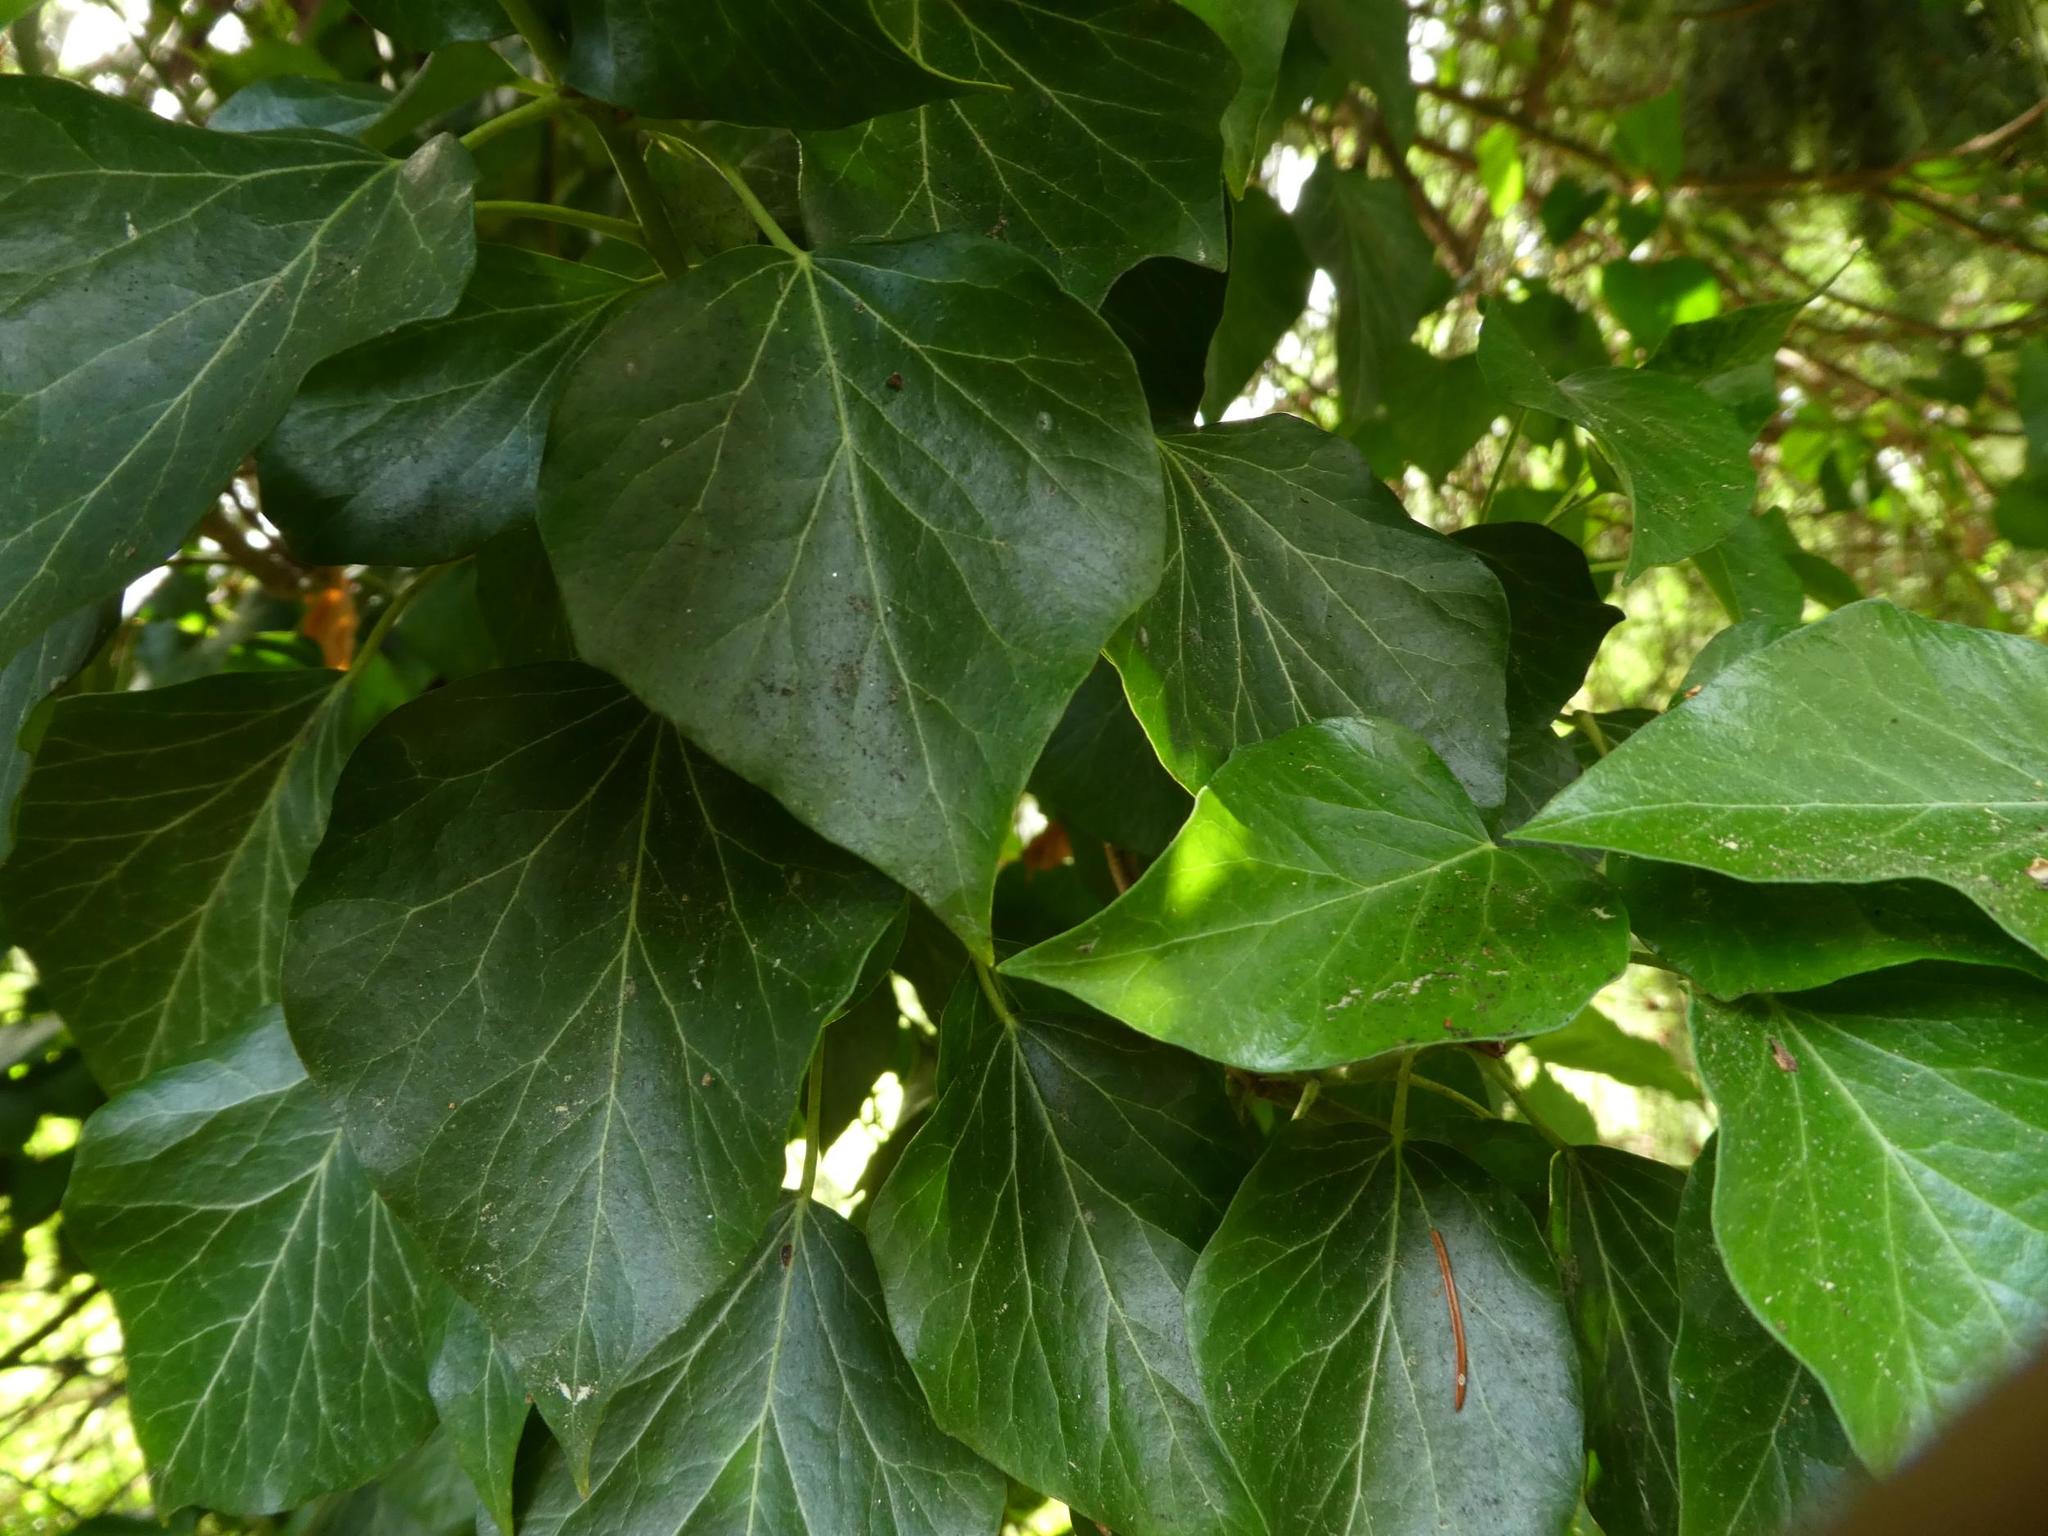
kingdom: Plantae
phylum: Tracheophyta
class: Magnoliopsida
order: Apiales
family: Araliaceae
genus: Hedera
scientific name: Hedera helix
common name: Ivy
